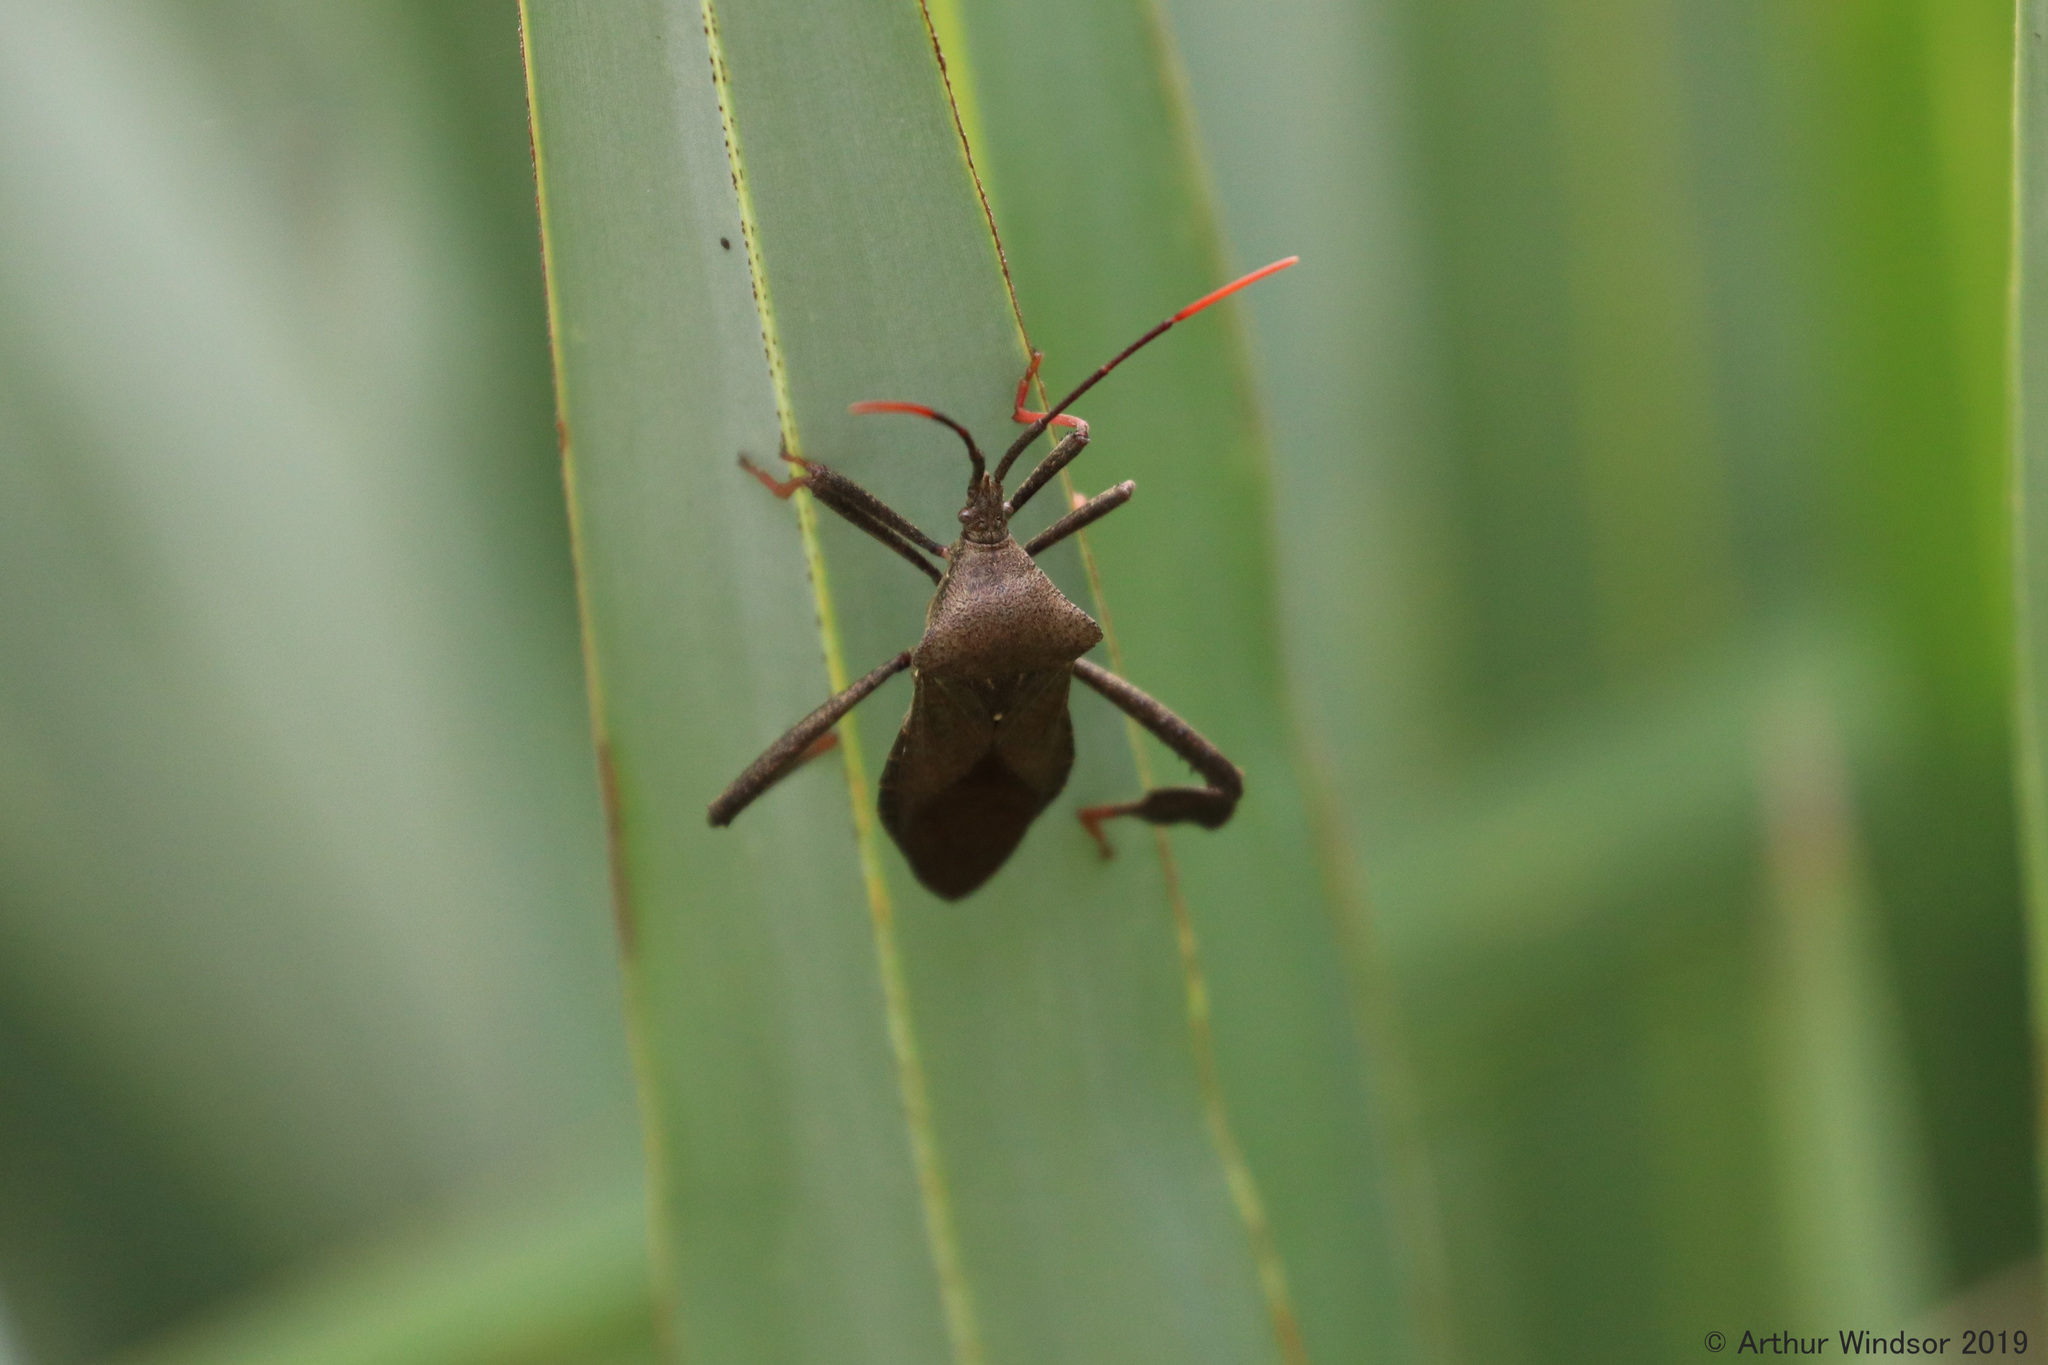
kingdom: Animalia
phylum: Arthropoda
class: Insecta
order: Hemiptera
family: Coreidae
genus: Acanthocephala
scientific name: Acanthocephala terminalis
